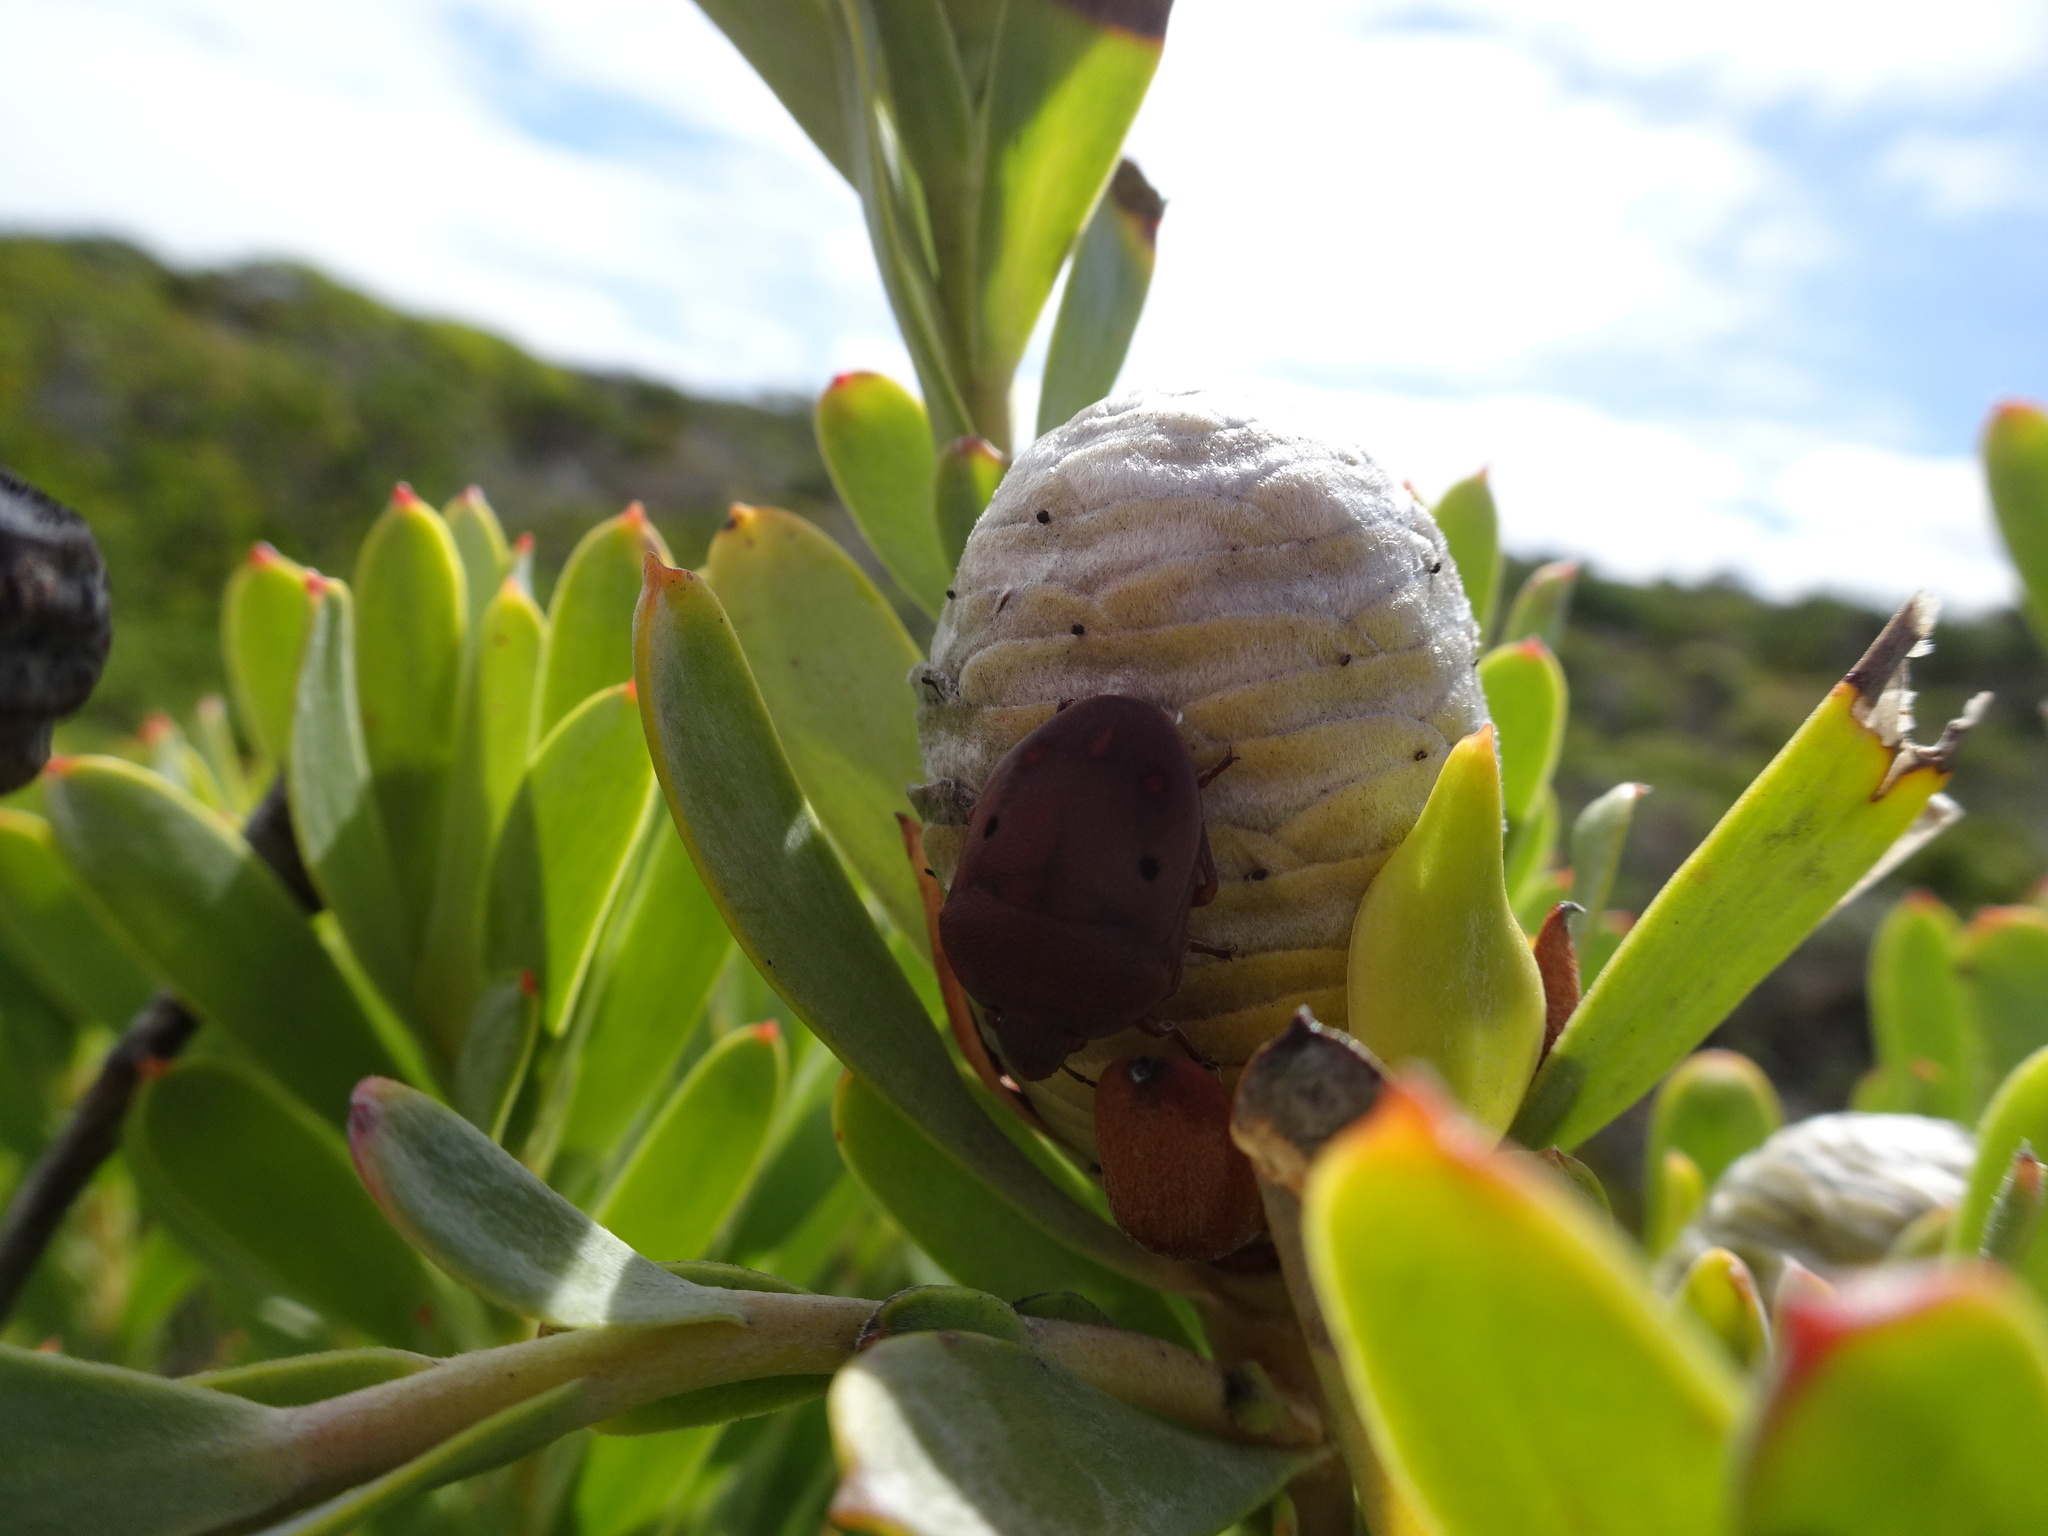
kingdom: Plantae
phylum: Tracheophyta
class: Magnoliopsida
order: Proteales
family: Proteaceae
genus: Leucadendron
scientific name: Leucadendron meridianum
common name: Limestone conebush
